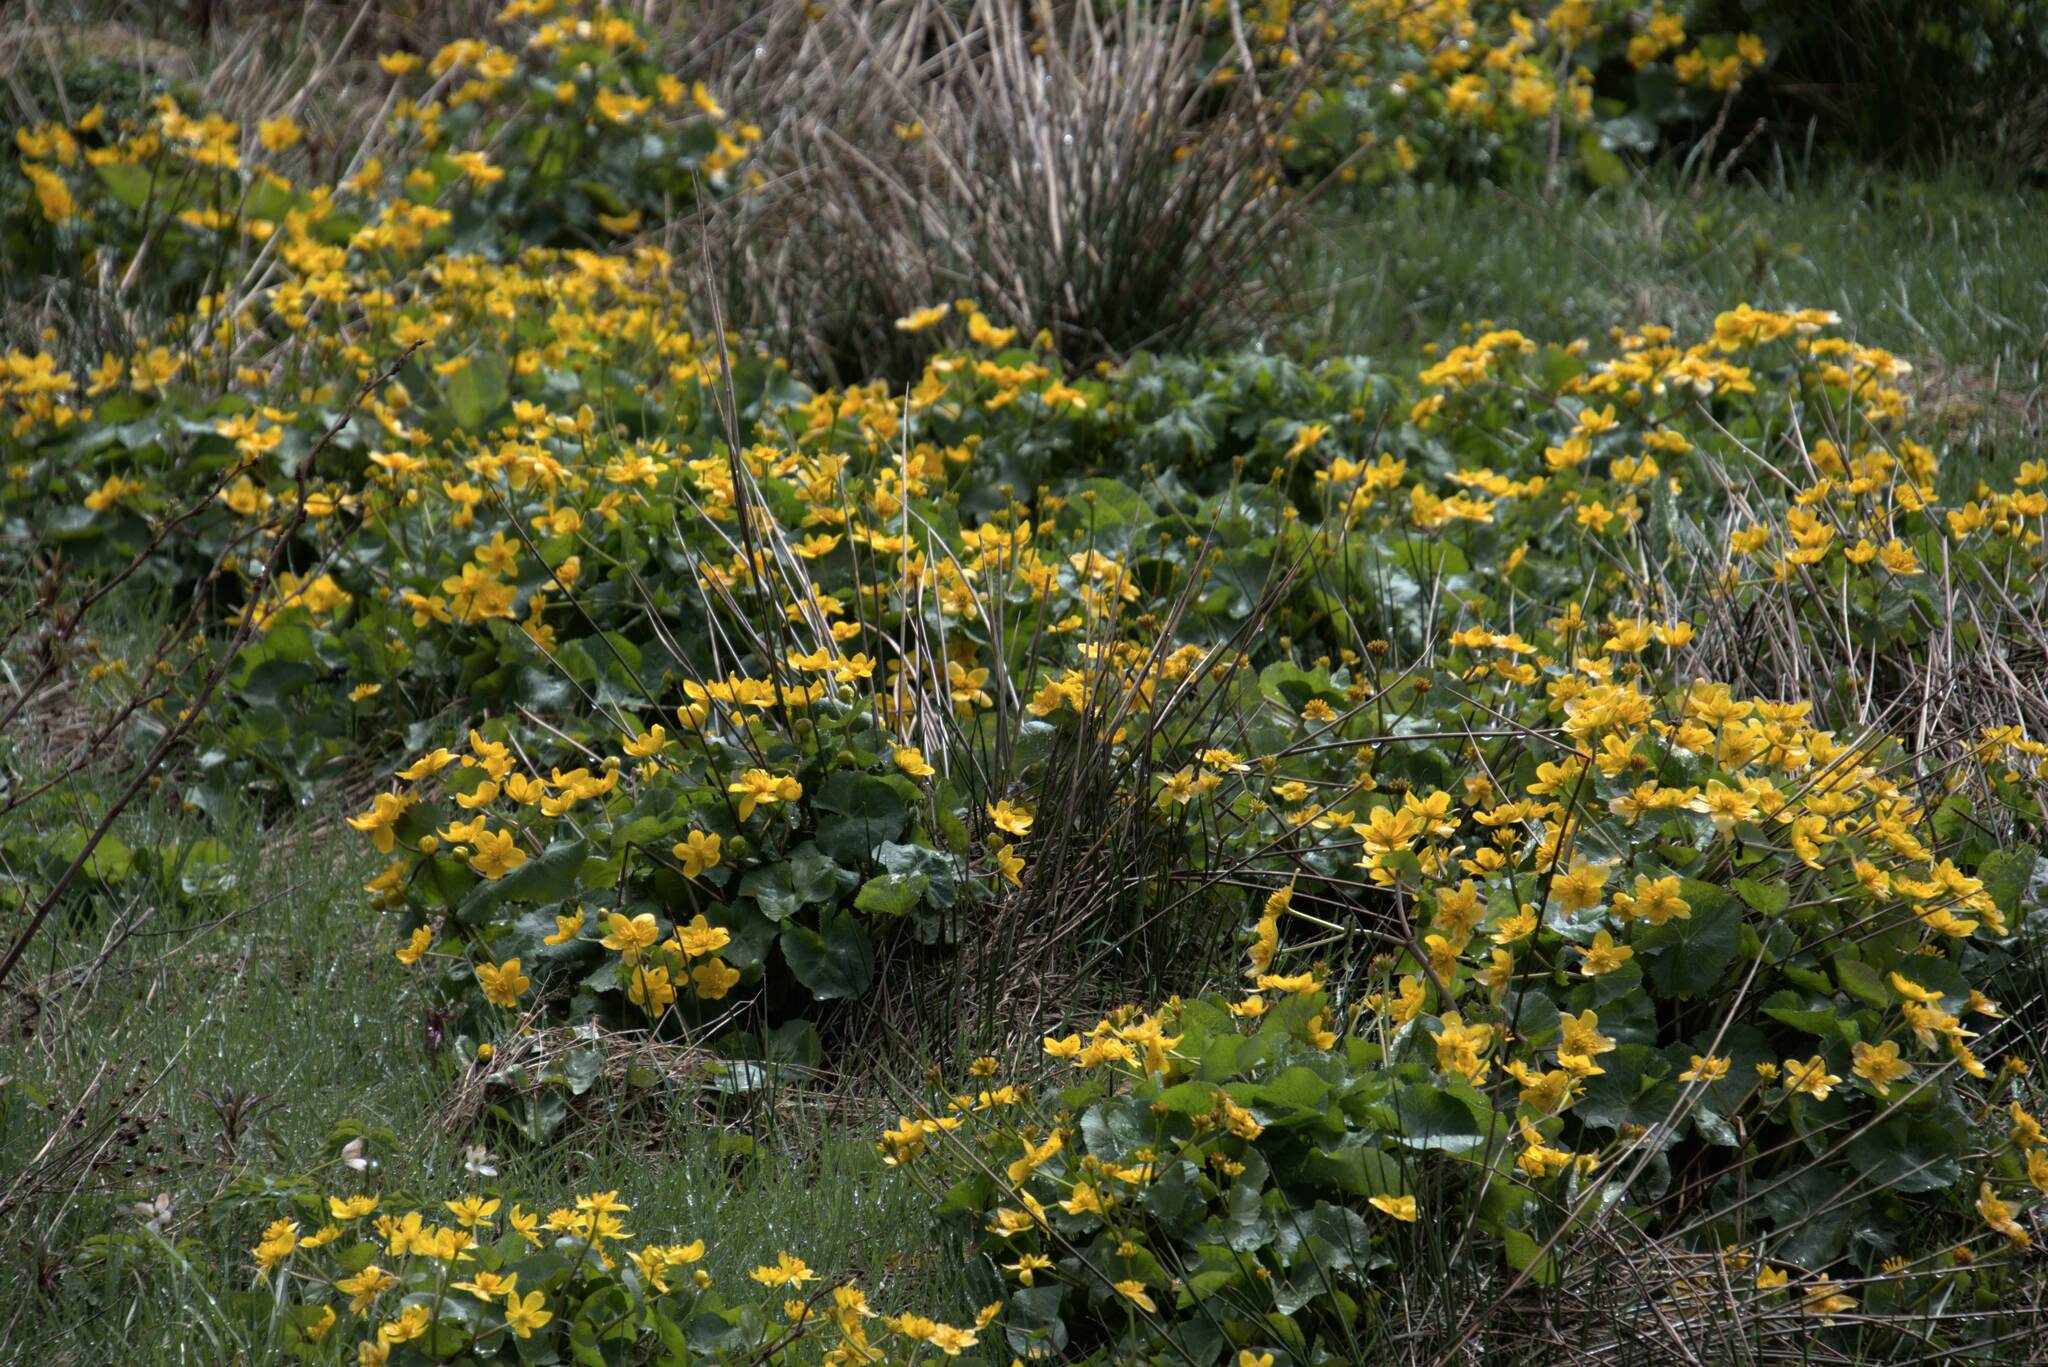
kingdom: Plantae
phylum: Tracheophyta
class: Magnoliopsida
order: Ranunculales
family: Ranunculaceae
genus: Caltha
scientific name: Caltha palustris
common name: Marsh marigold
